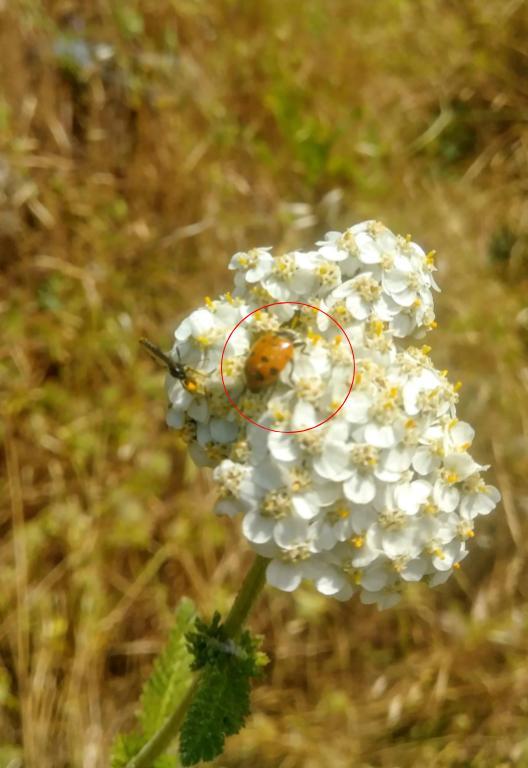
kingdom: Animalia
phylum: Arthropoda
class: Insecta
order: Coleoptera
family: Coccinellidae
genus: Hippodamia
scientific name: Hippodamia convergens
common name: Convergent lady beetle
